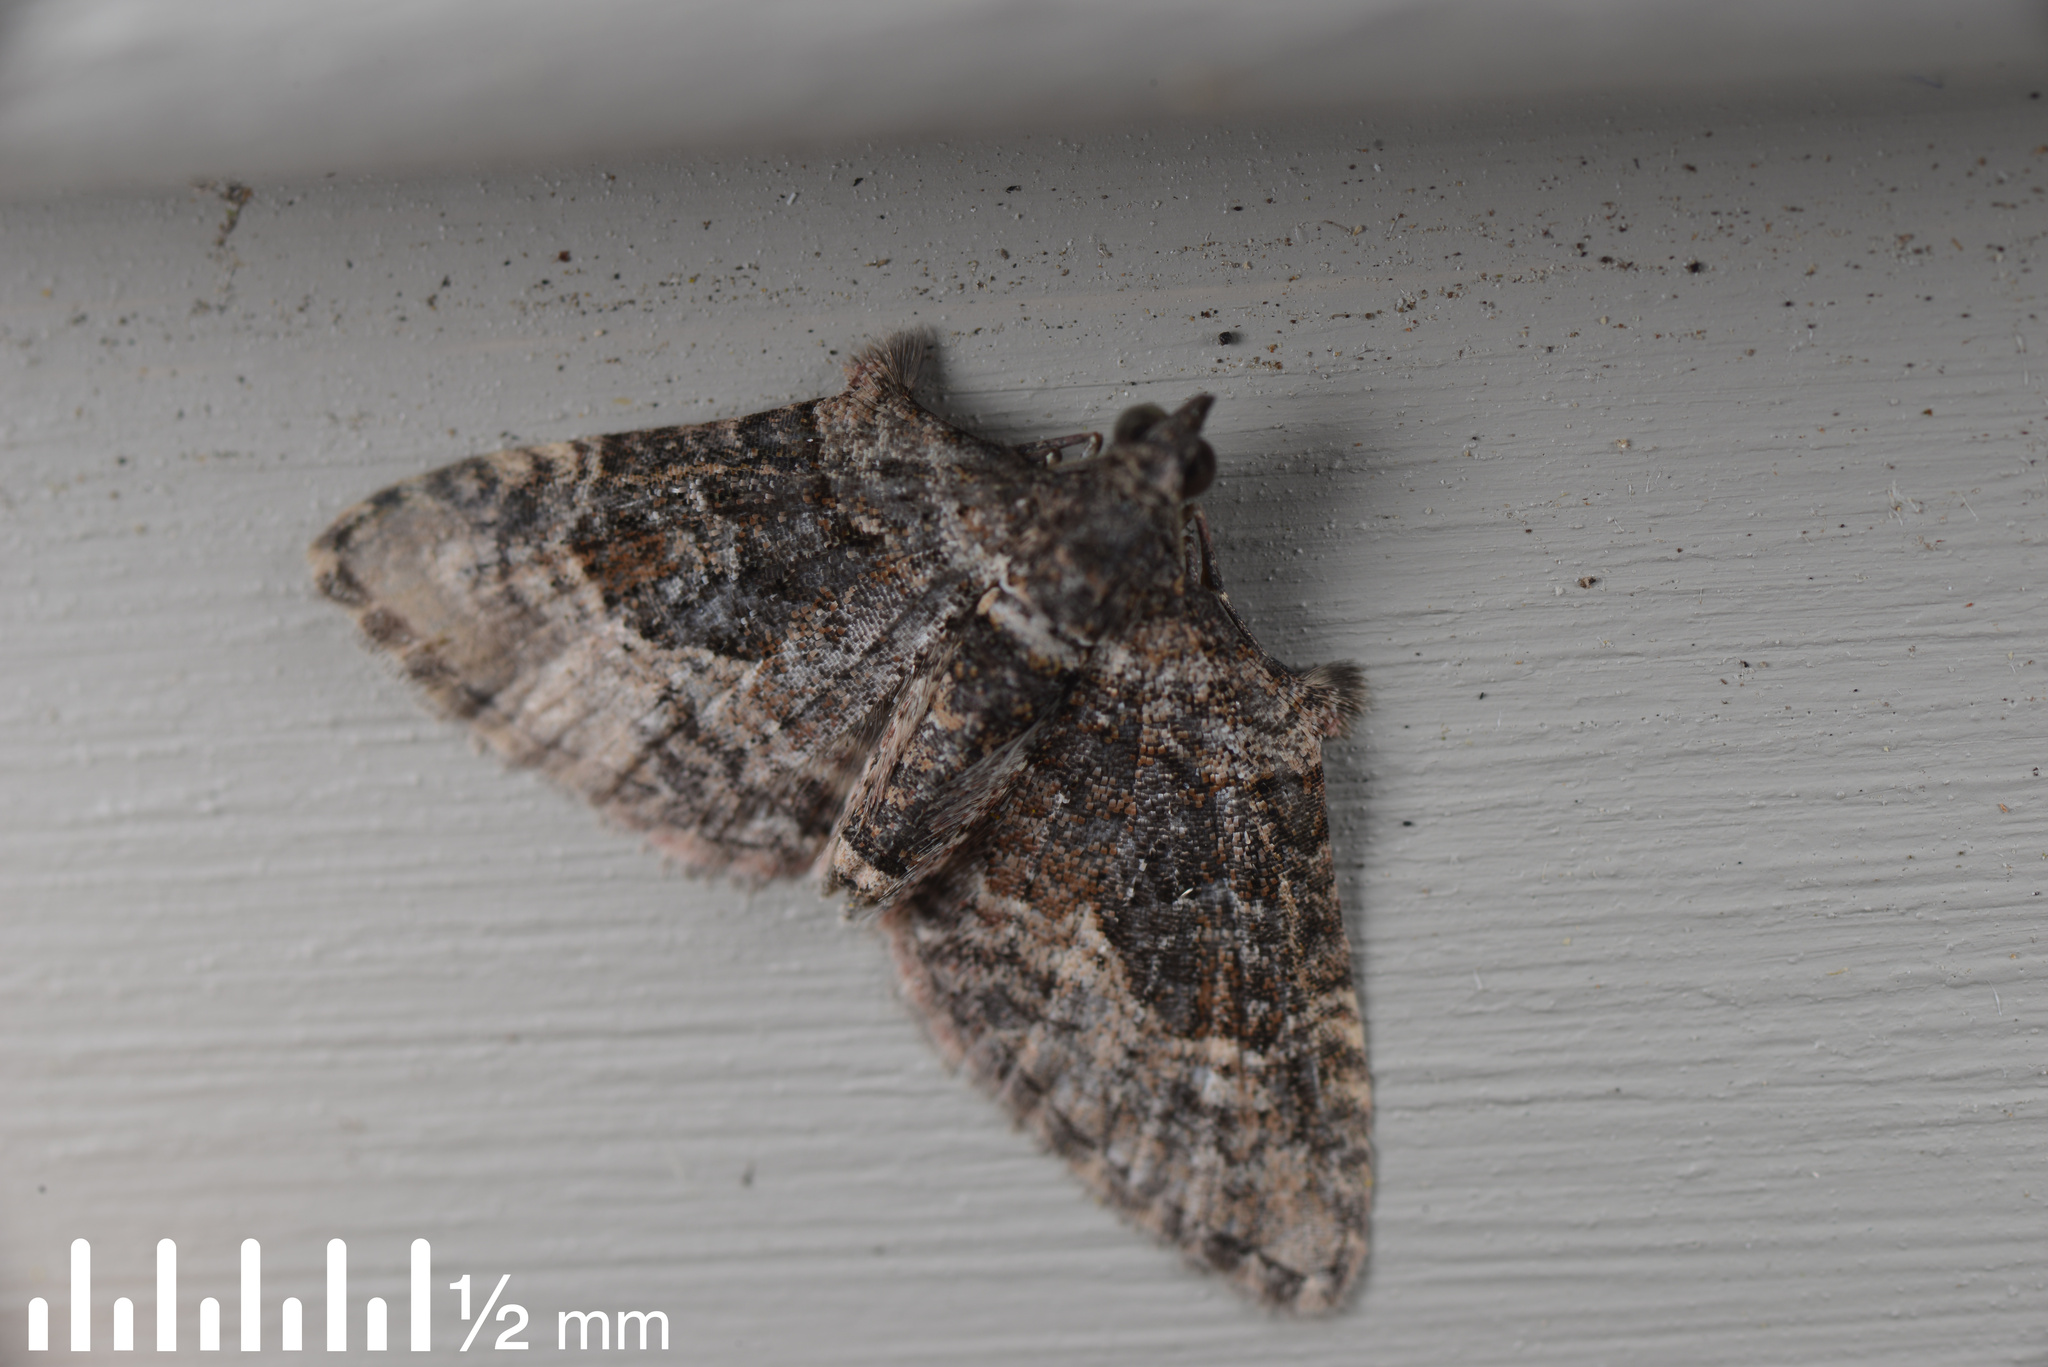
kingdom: Animalia
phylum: Arthropoda
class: Insecta
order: Lepidoptera
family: Geometridae
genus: Phrissogonus
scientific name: Phrissogonus laticostata
